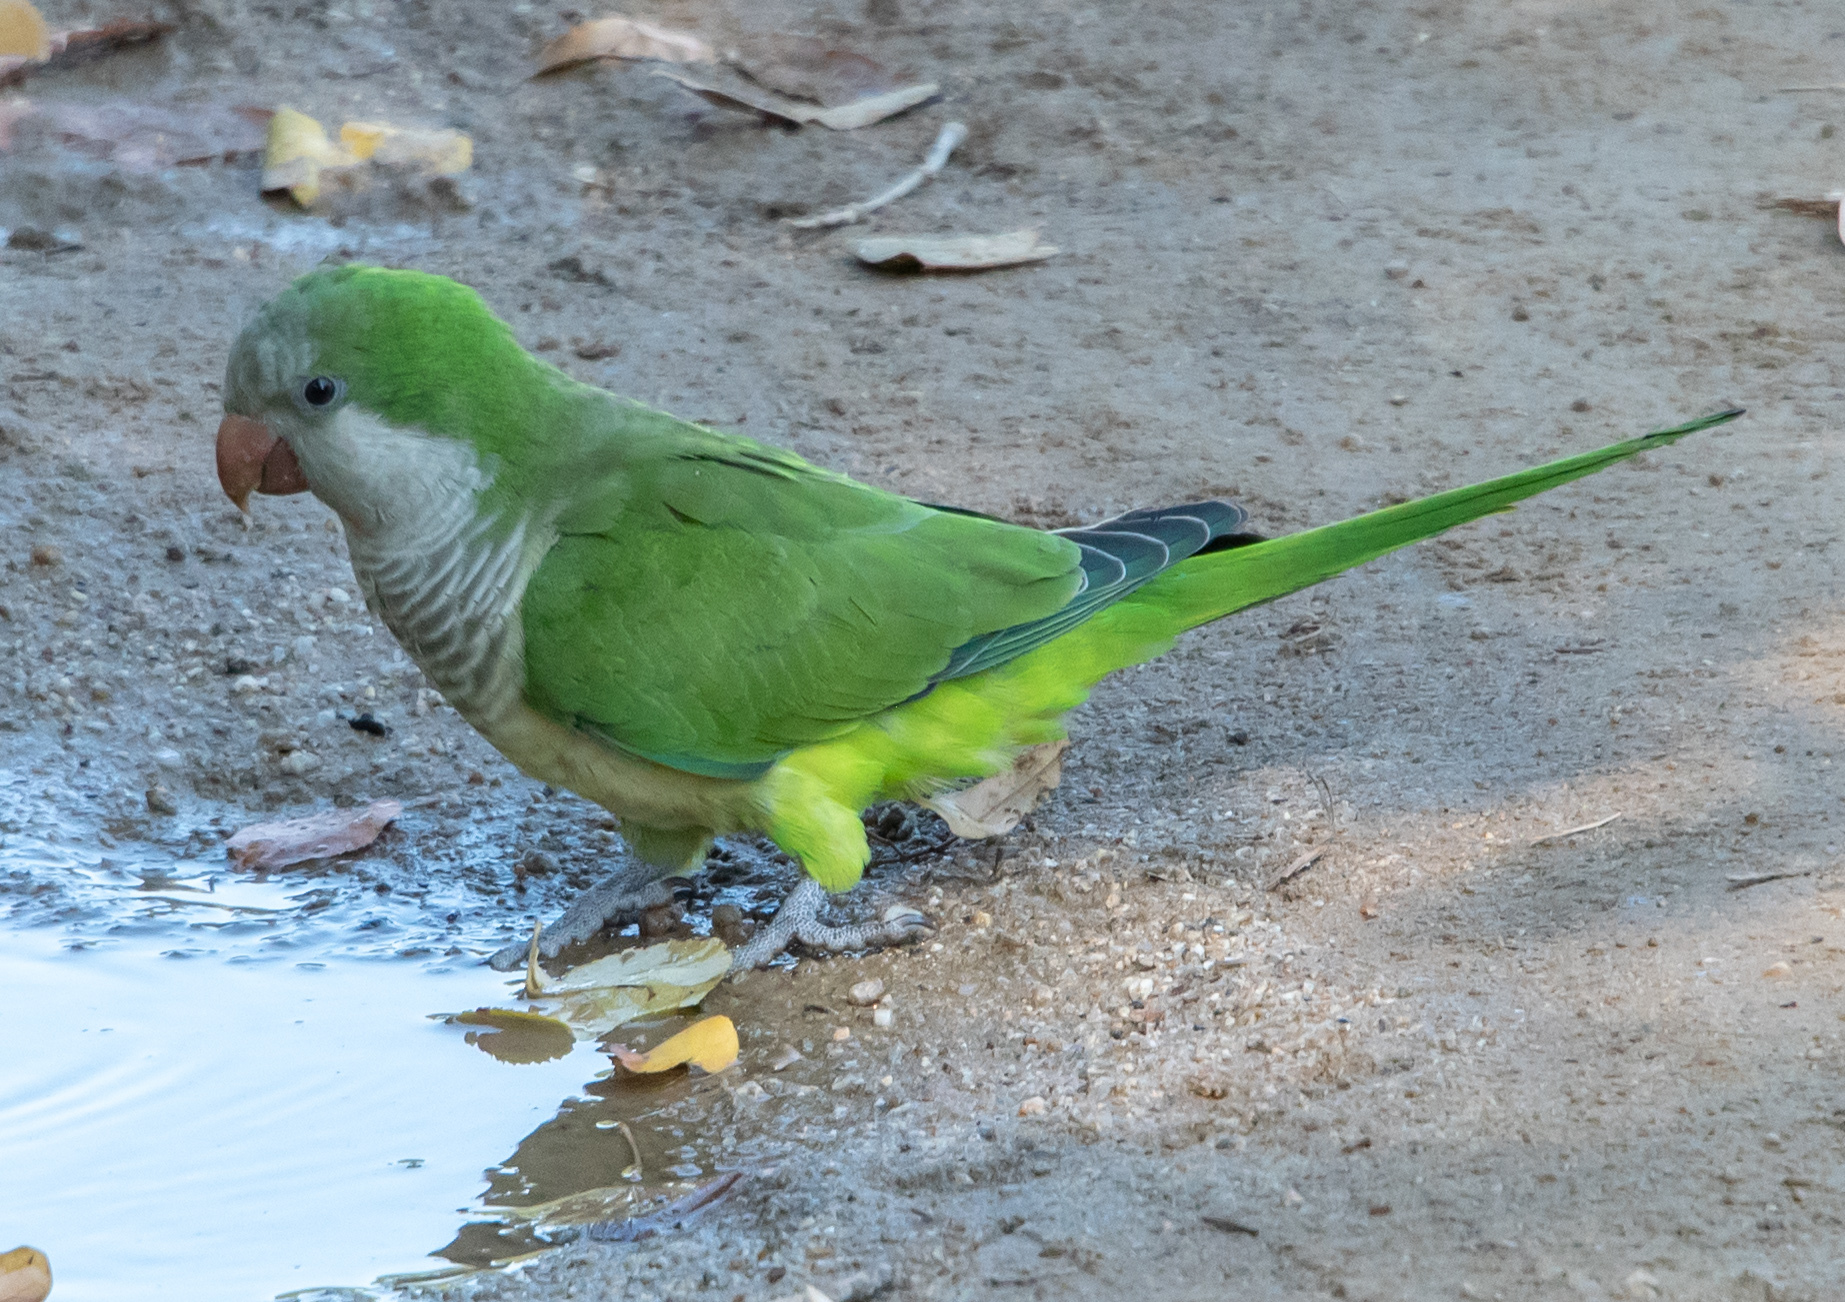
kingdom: Animalia
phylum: Chordata
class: Aves
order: Psittaciformes
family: Psittacidae
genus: Myiopsitta
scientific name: Myiopsitta monachus
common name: Monk parakeet
